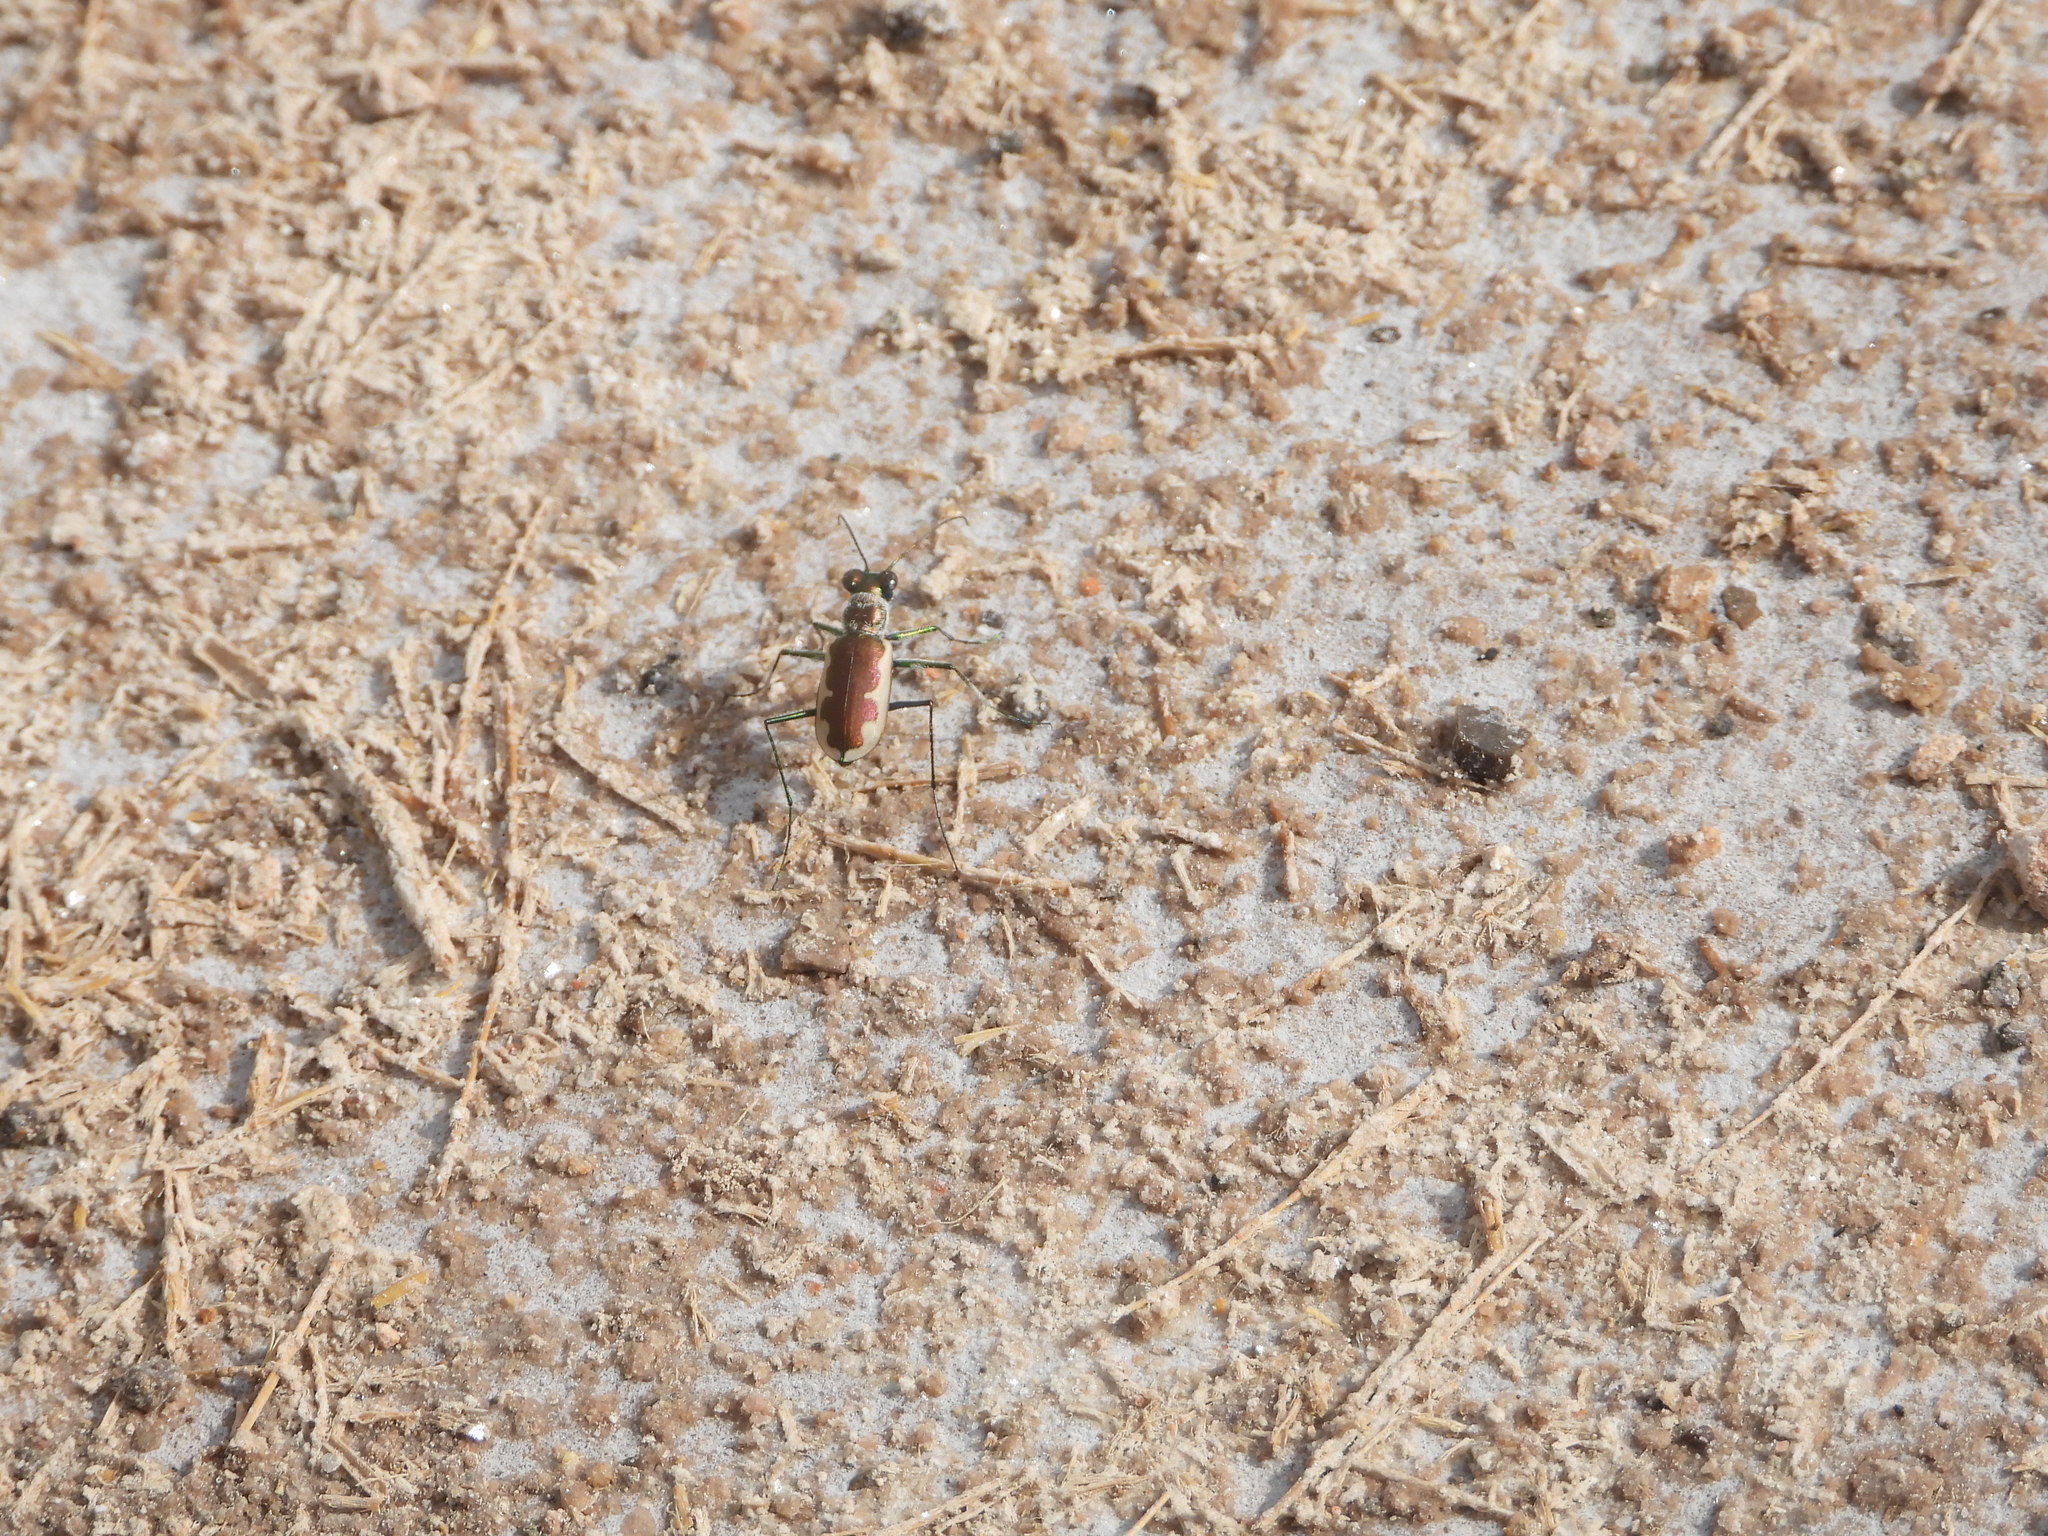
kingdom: Animalia
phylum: Arthropoda
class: Insecta
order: Coleoptera
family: Carabidae
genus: Eunota
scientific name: Eunota circumpicta
